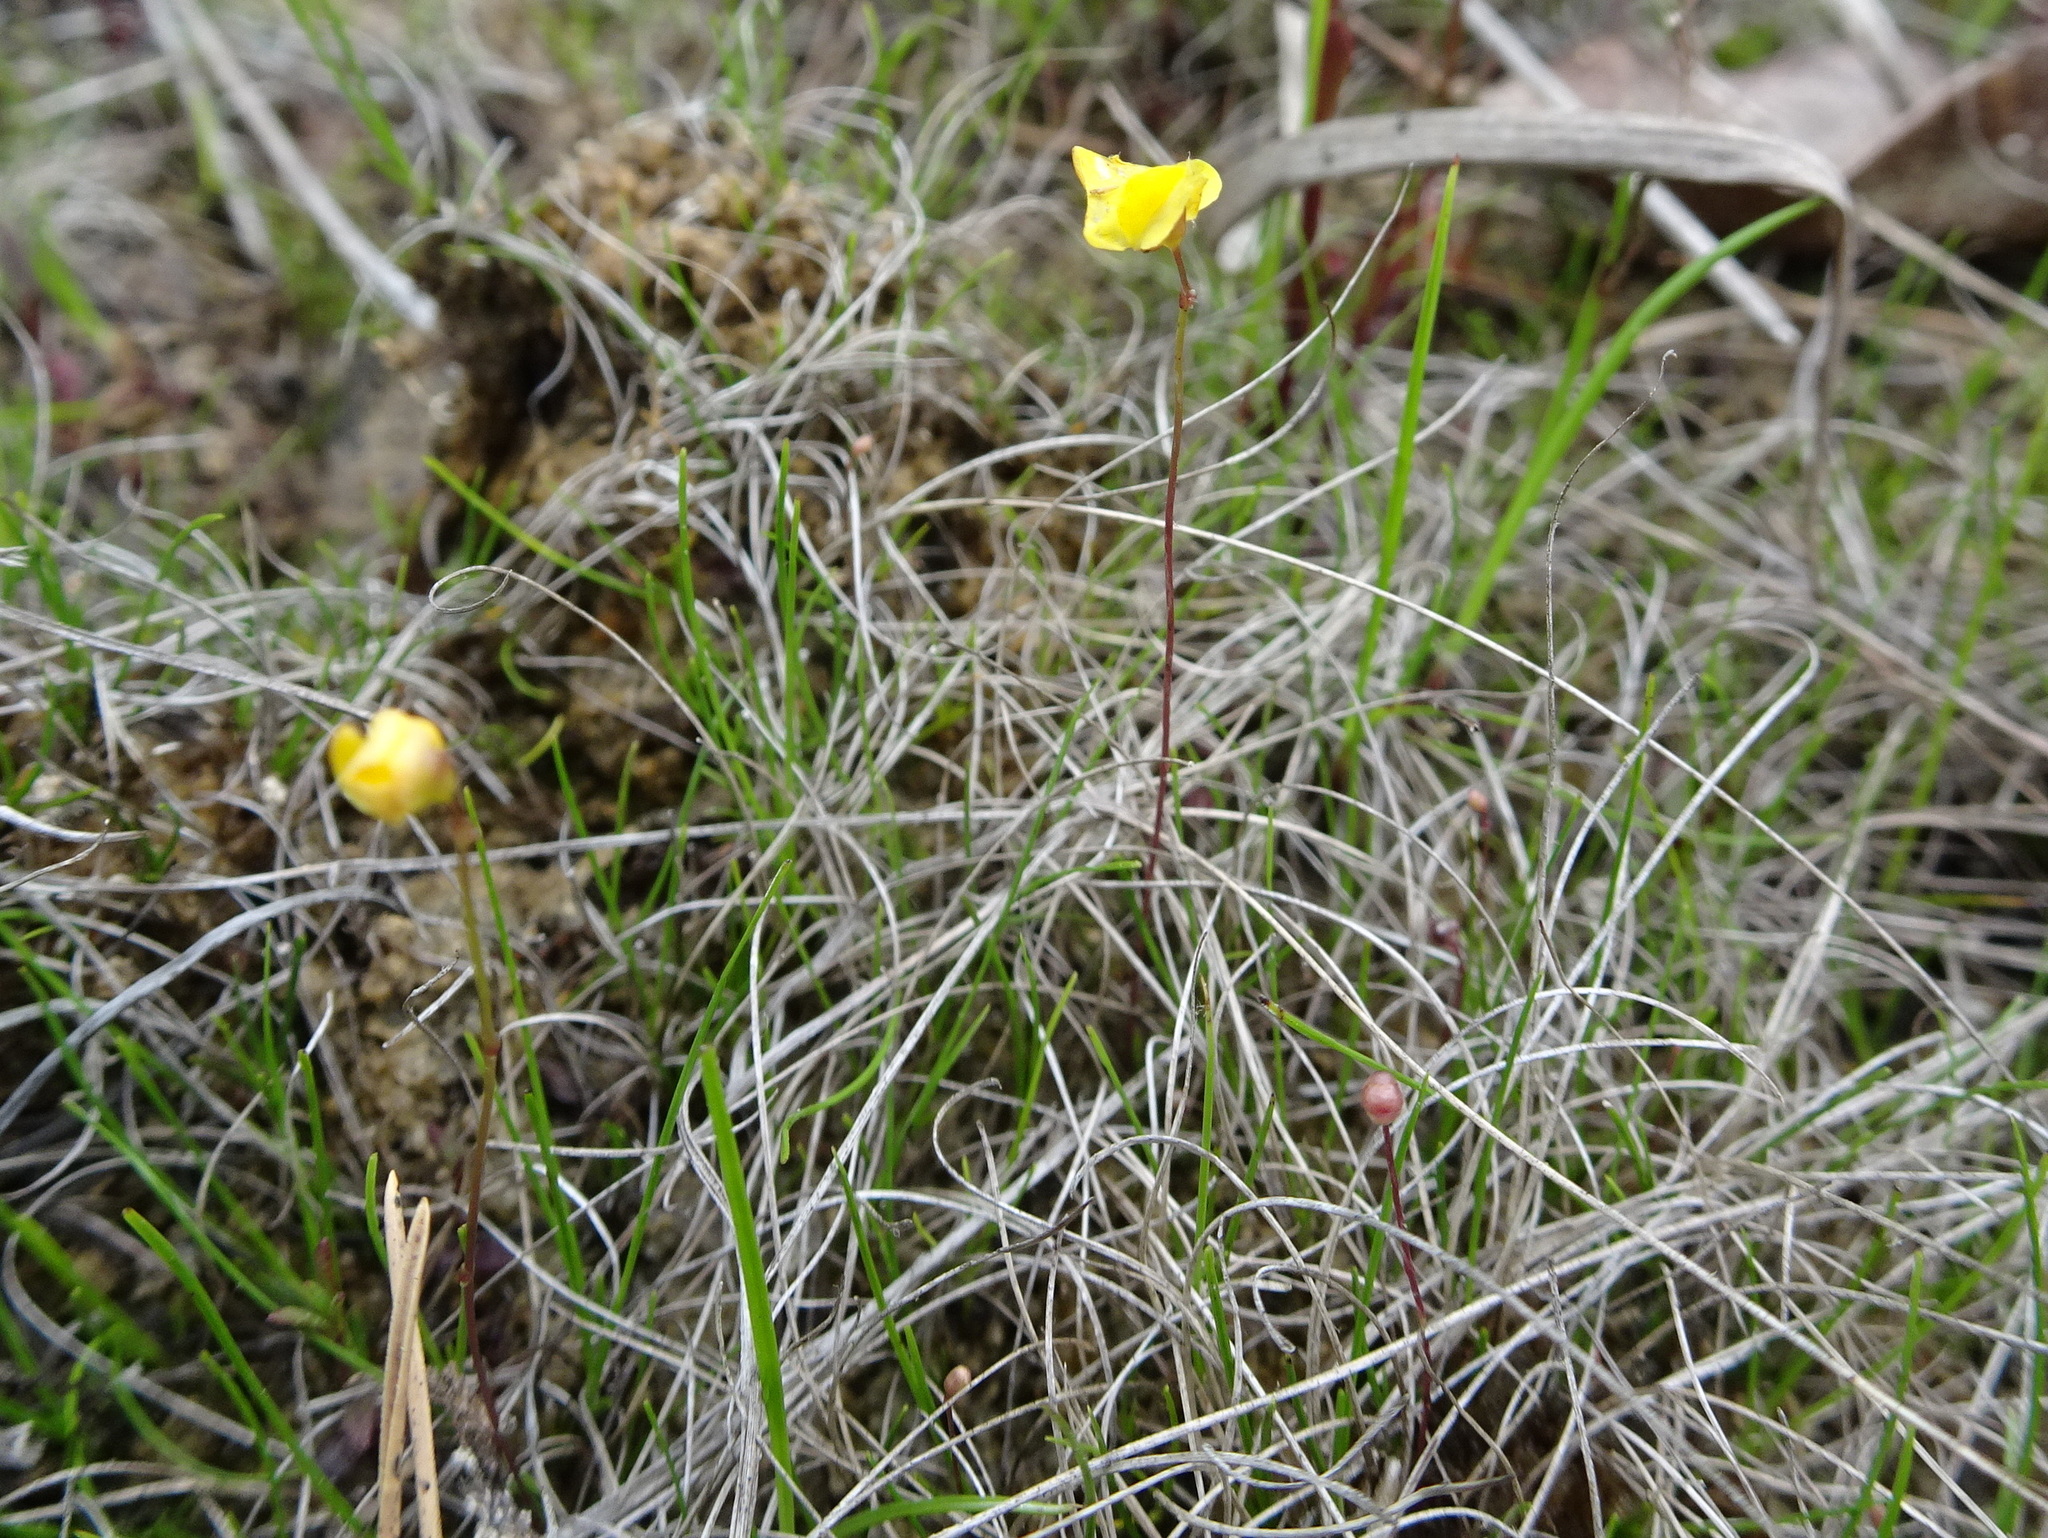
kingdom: Plantae
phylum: Tracheophyta
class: Magnoliopsida
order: Lamiales
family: Lentibulariaceae
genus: Utricularia
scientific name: Utricularia subulata
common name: Tiny bladderwort
